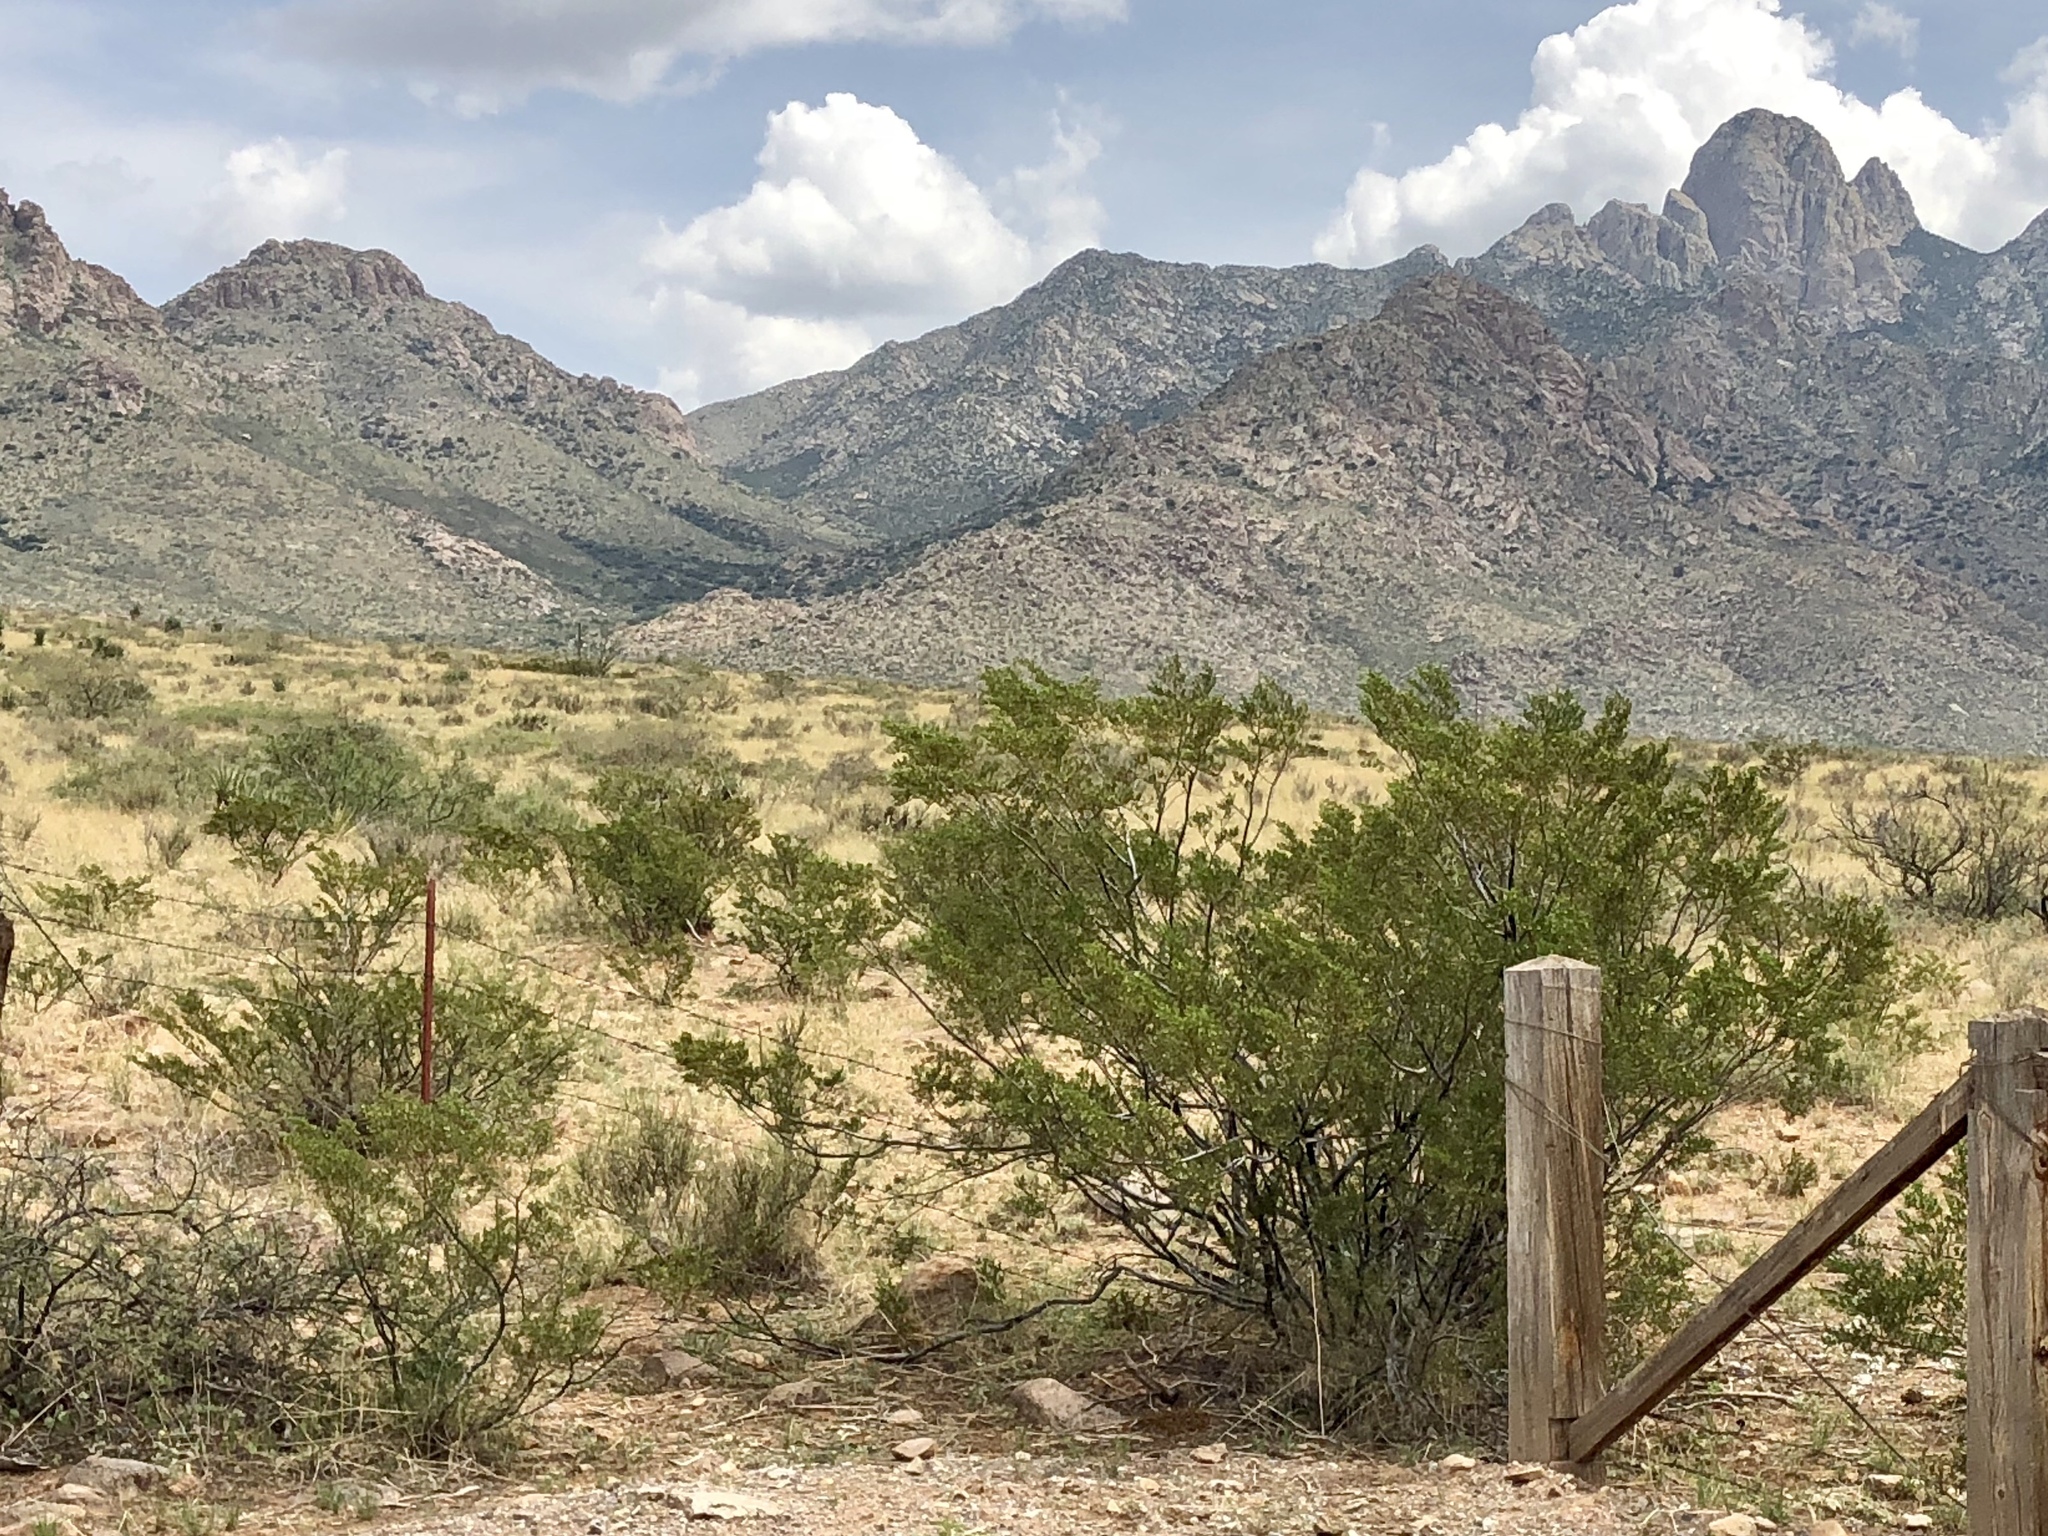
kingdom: Plantae
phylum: Tracheophyta
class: Magnoliopsida
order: Zygophyllales
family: Zygophyllaceae
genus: Larrea
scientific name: Larrea tridentata
